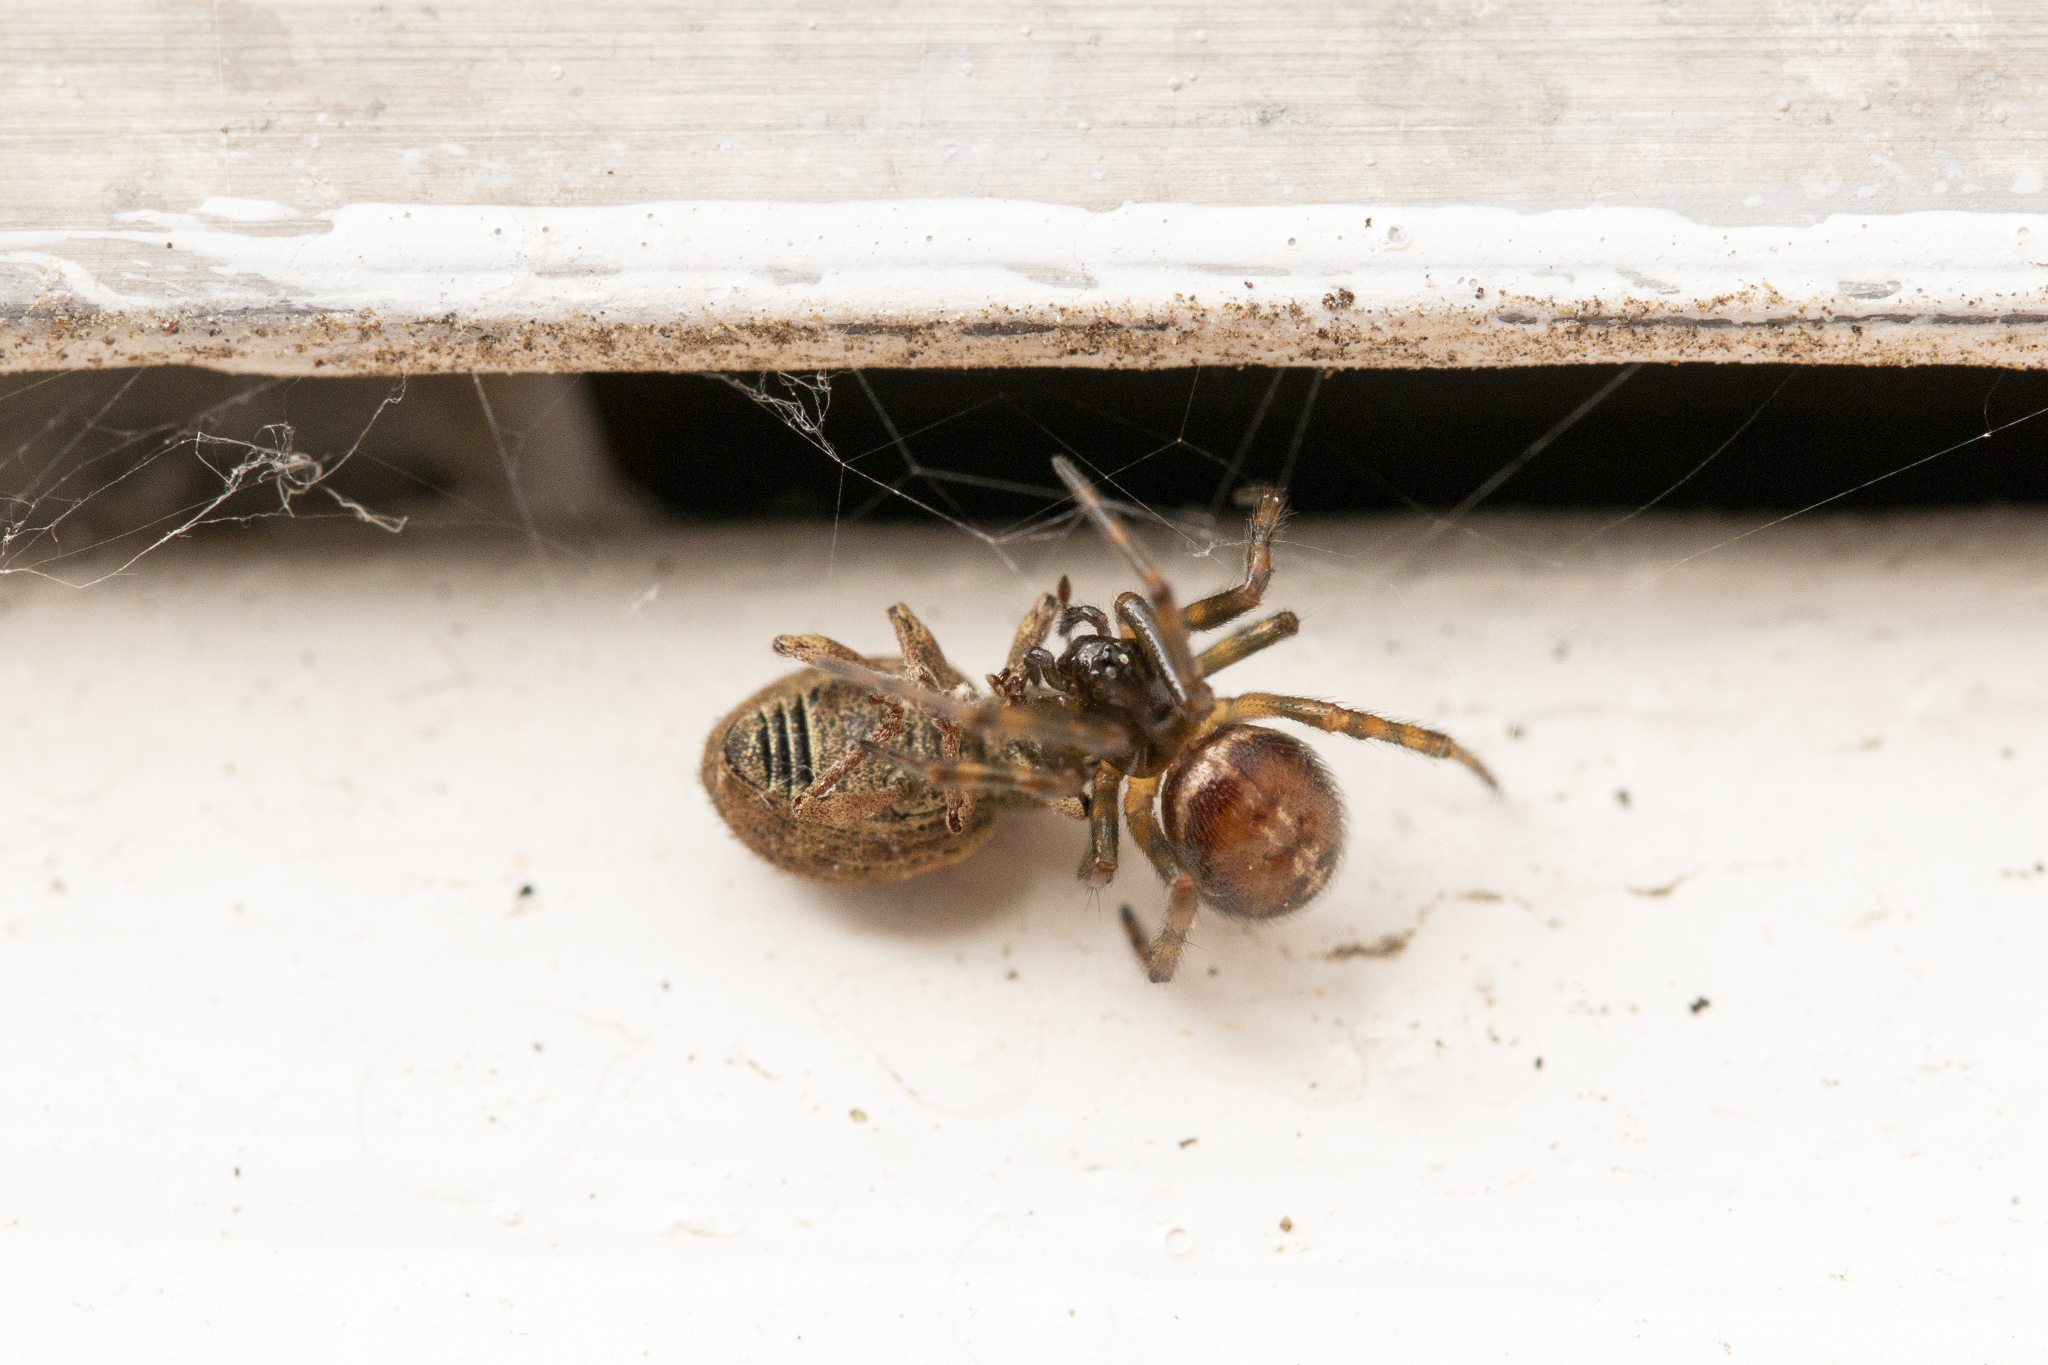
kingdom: Animalia
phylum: Arthropoda
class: Arachnida
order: Araneae
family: Theridiidae
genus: Steatoda
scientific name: Steatoda bipunctata
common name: False widow
